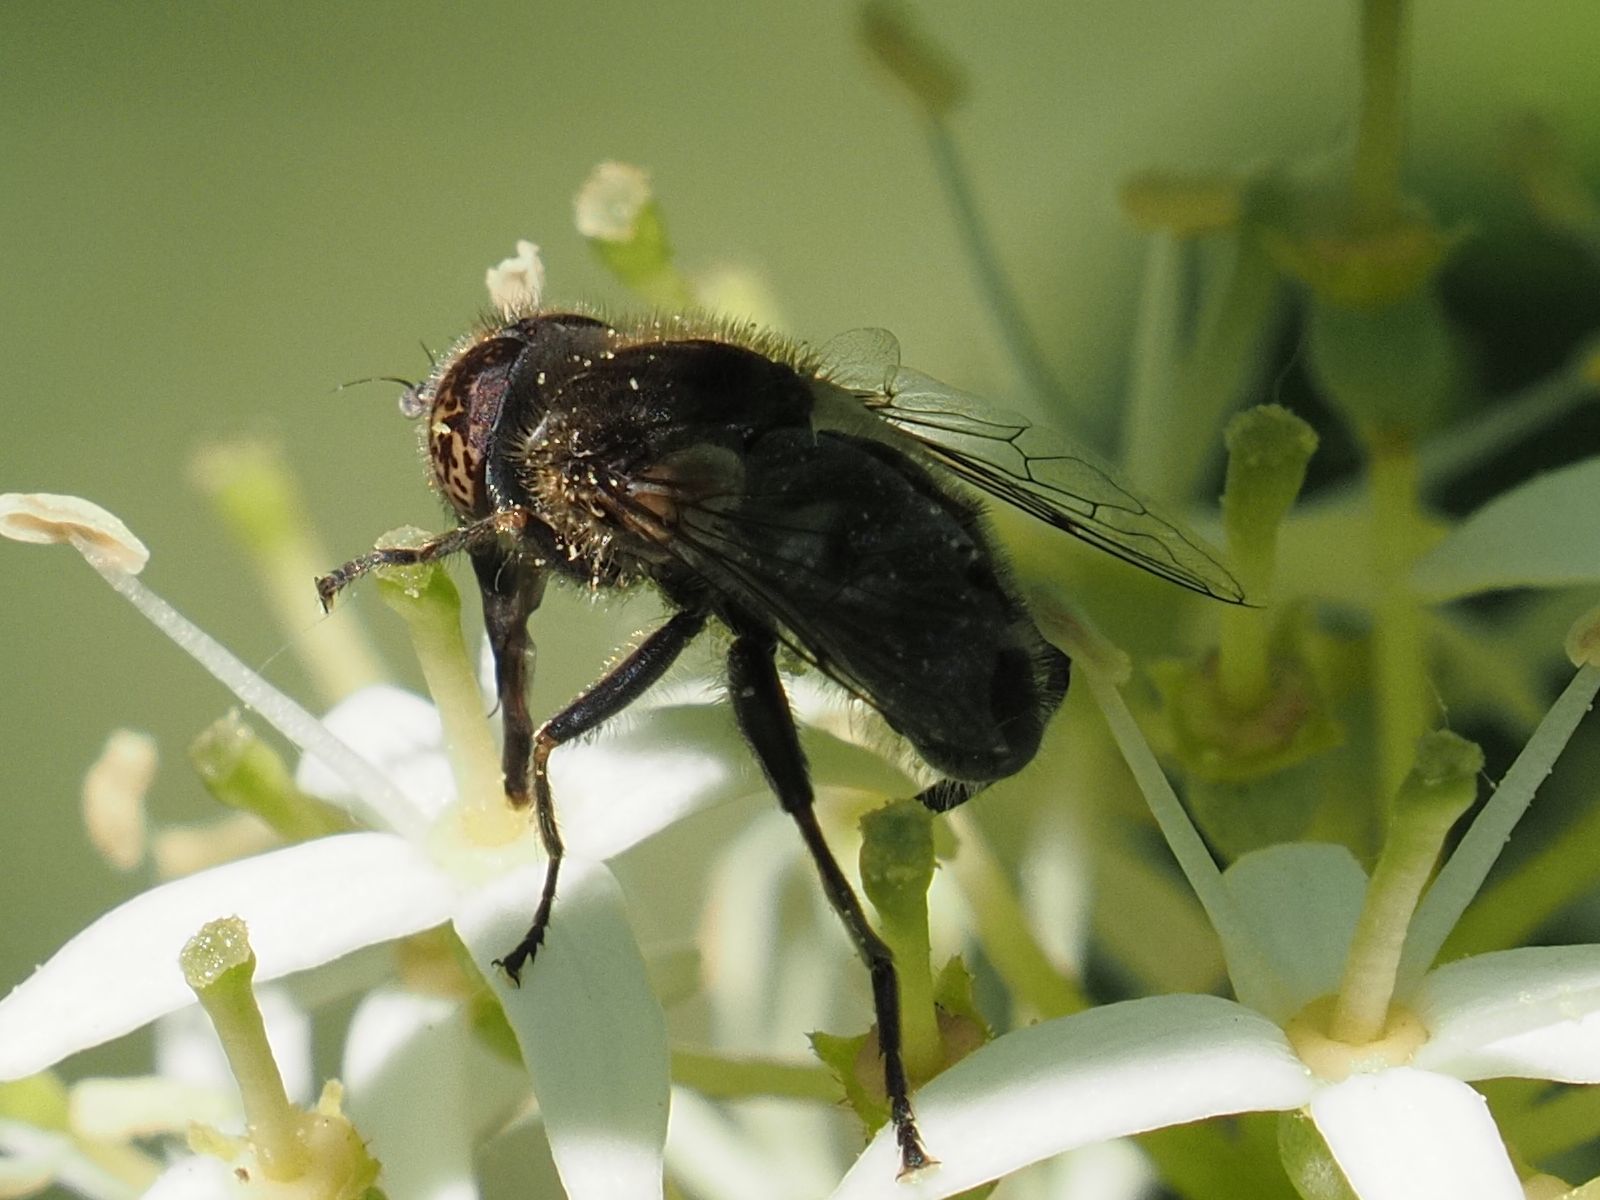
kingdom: Animalia
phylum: Arthropoda
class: Insecta
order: Diptera
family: Syrphidae
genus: Eristalinus
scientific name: Eristalinus sepulchralis
